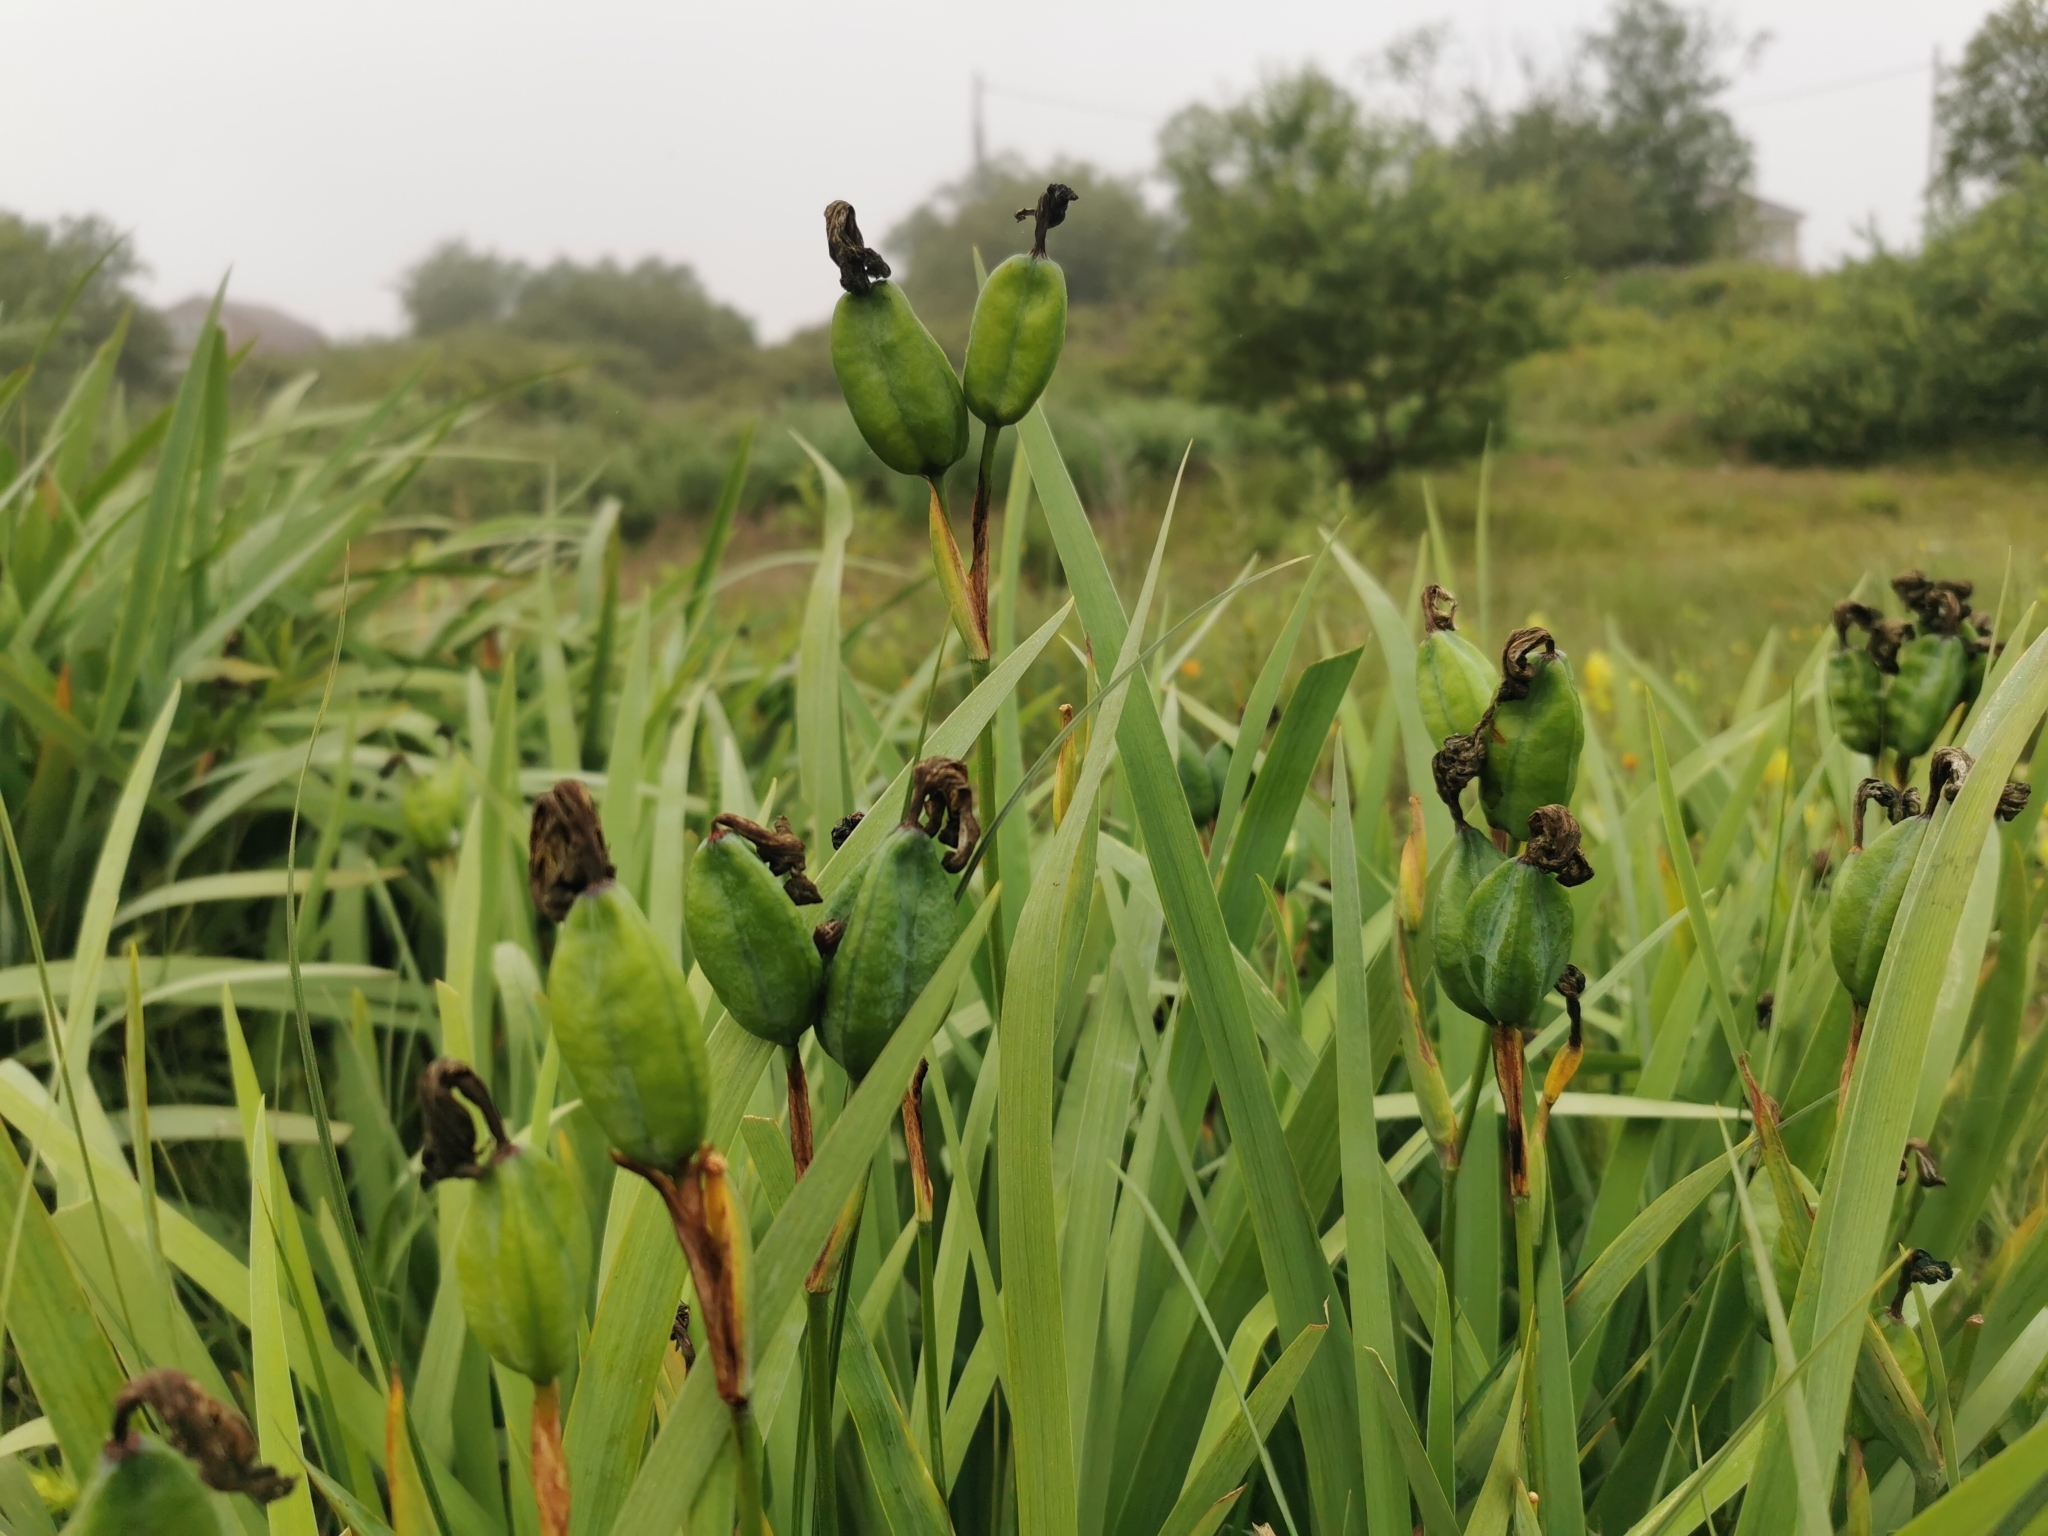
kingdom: Plantae
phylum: Tracheophyta
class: Liliopsida
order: Asparagales
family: Iridaceae
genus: Iris
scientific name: Iris setosa
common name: Arctic blue flag
